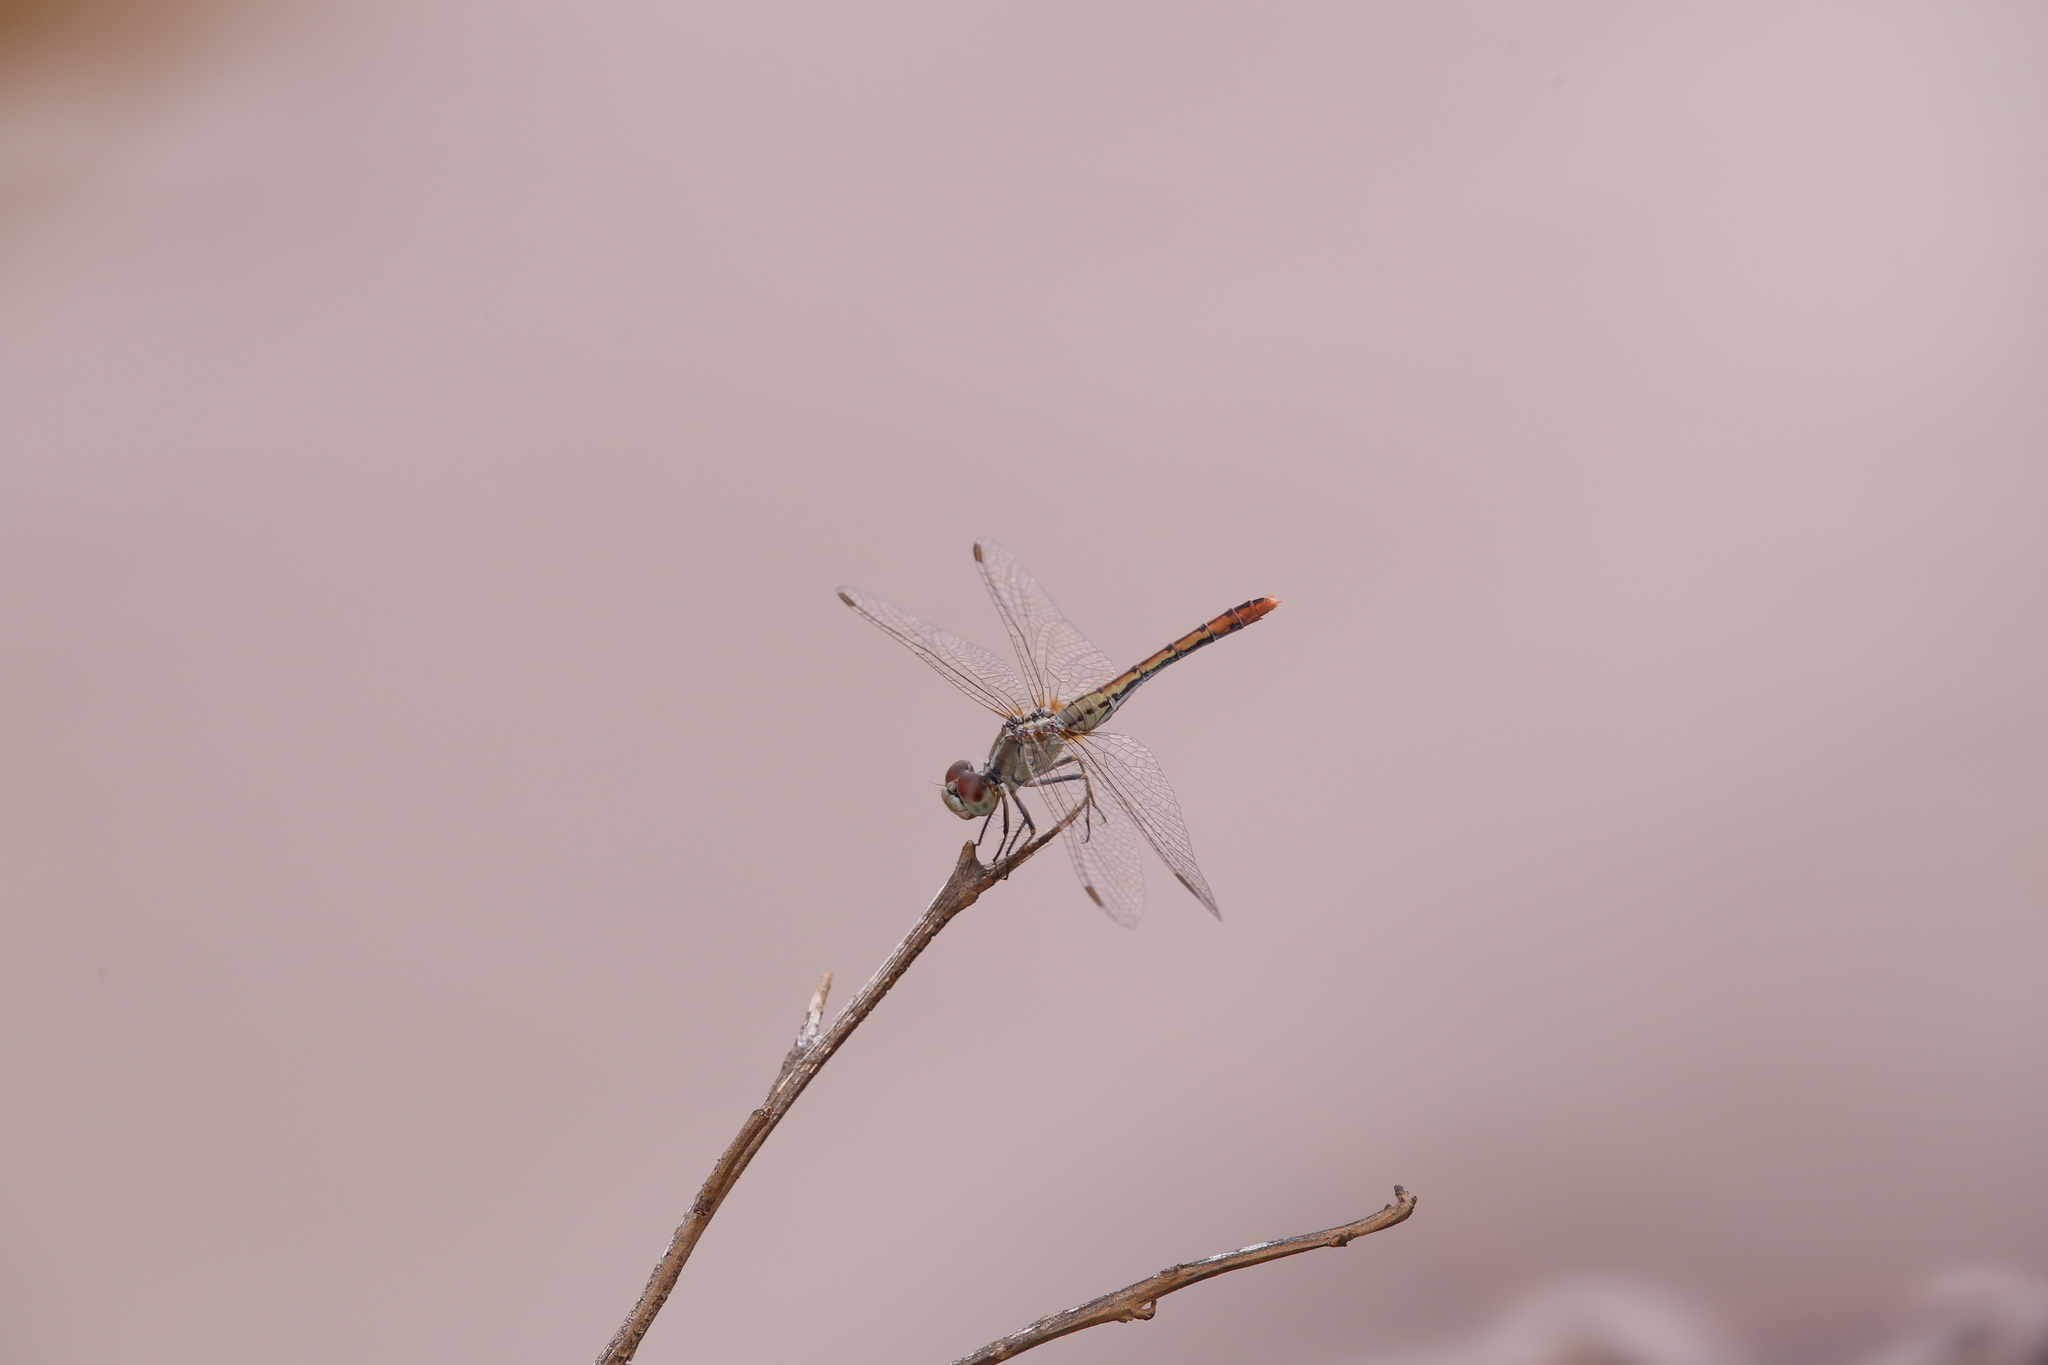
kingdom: Animalia
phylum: Arthropoda
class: Insecta
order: Odonata
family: Libellulidae
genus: Diplacodes
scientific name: Diplacodes bipunctata
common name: Red percher dragonfly
